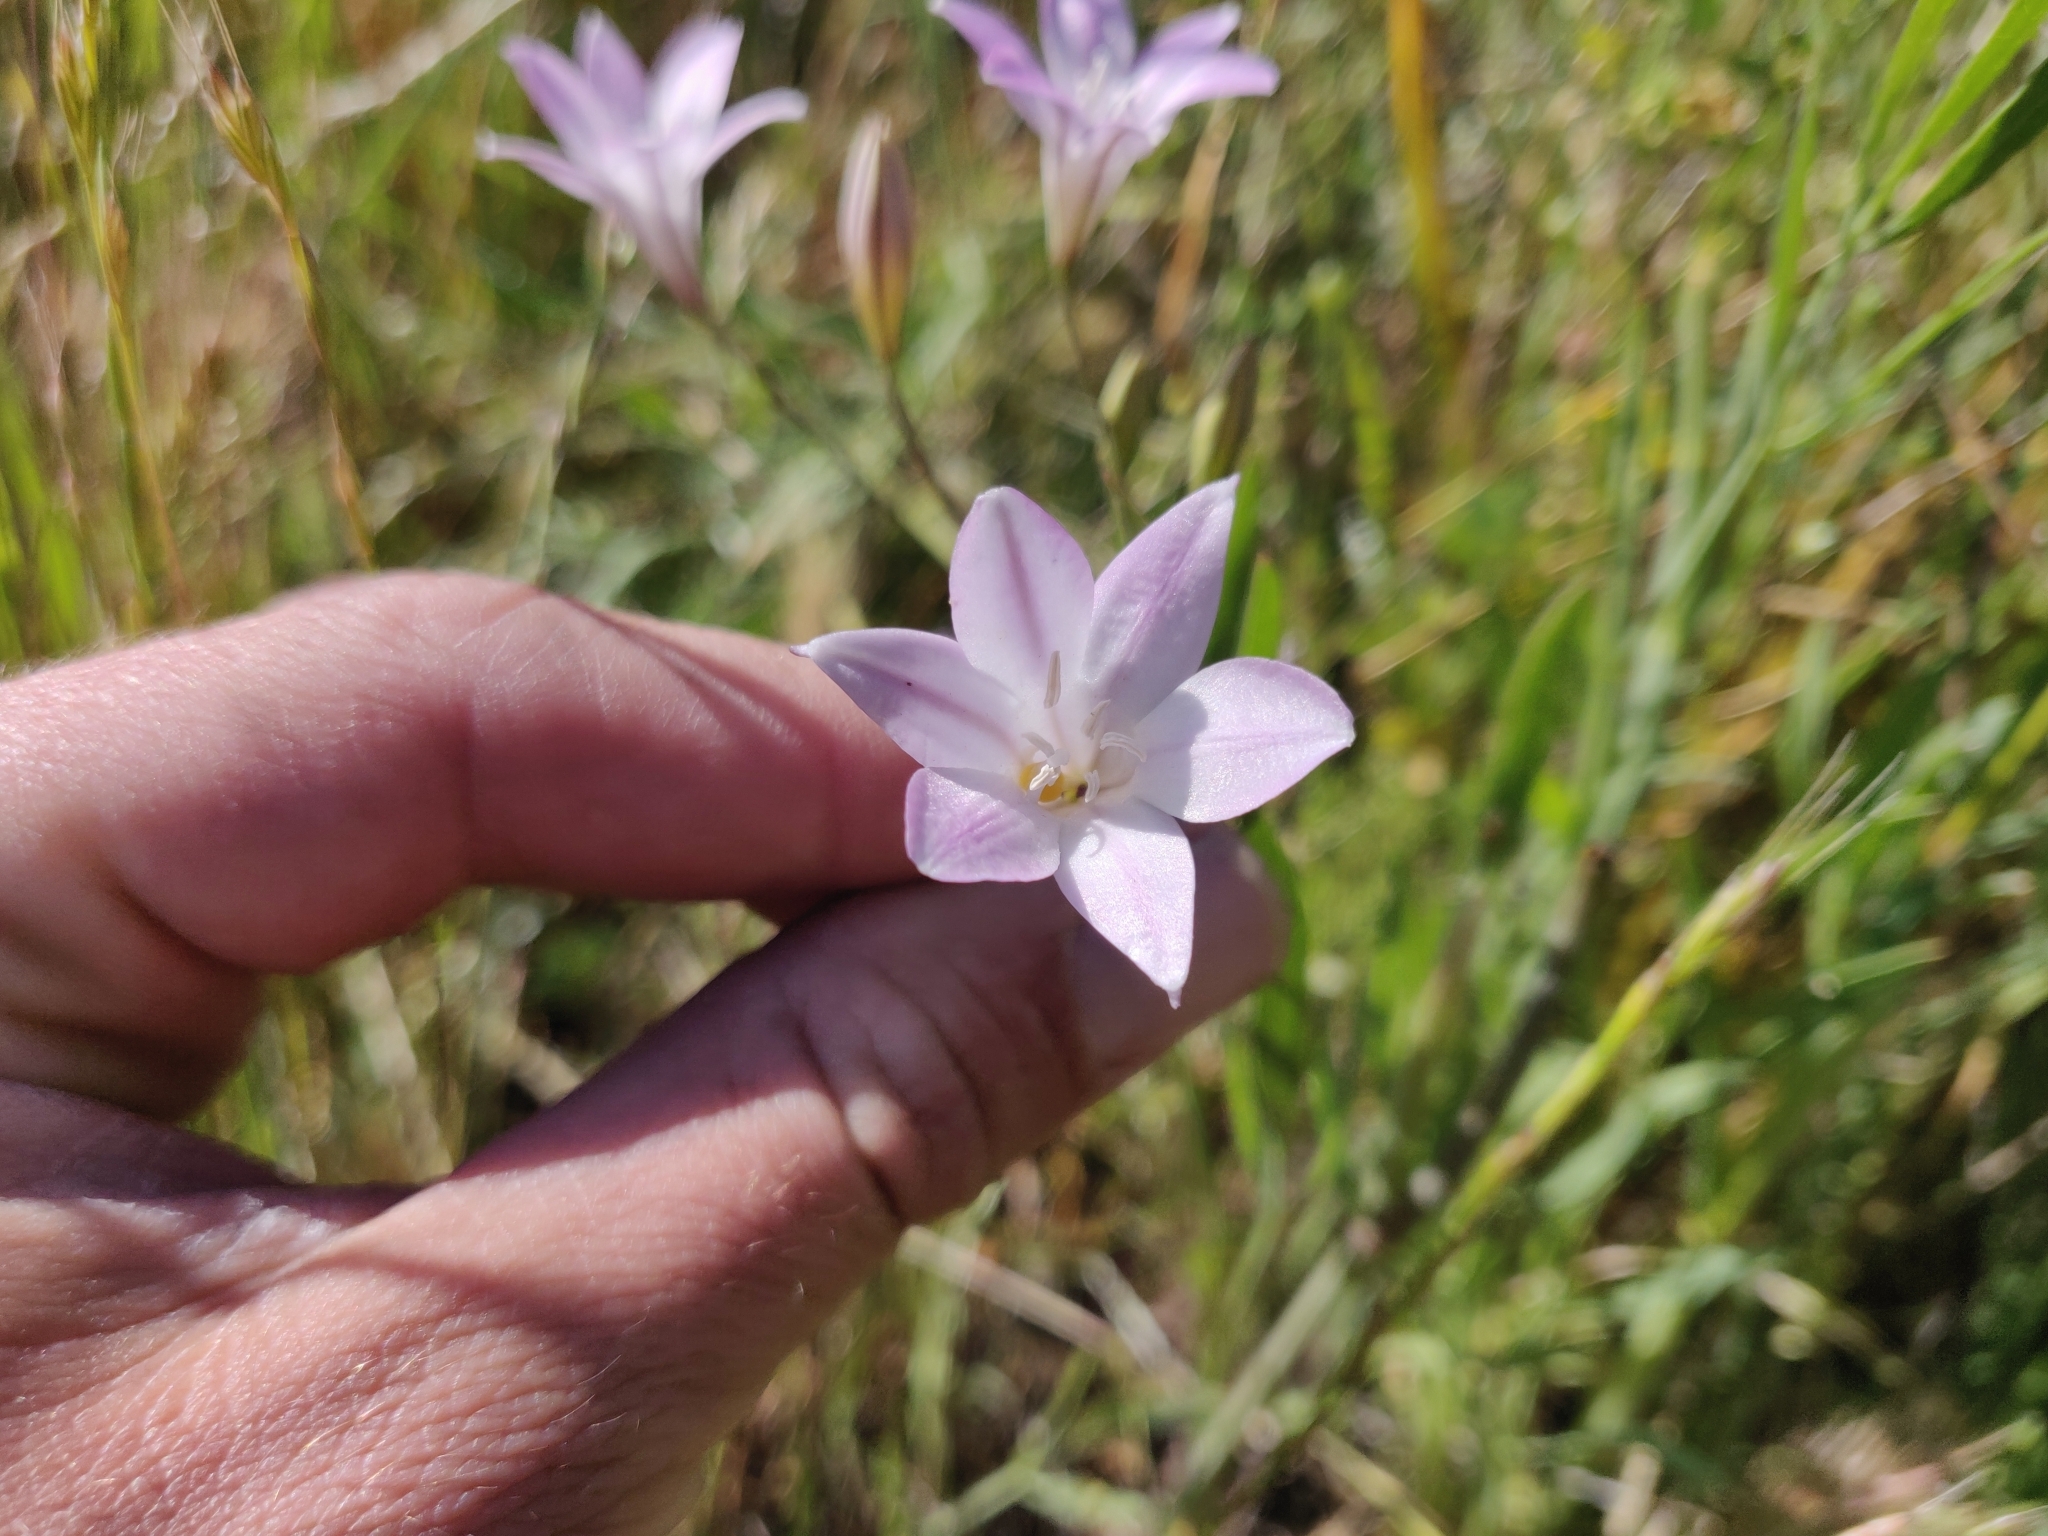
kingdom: Plantae
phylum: Tracheophyta
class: Liliopsida
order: Asparagales
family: Asparagaceae
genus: Triteleia
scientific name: Triteleia peduncularis
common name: Long-ray brodiaea
